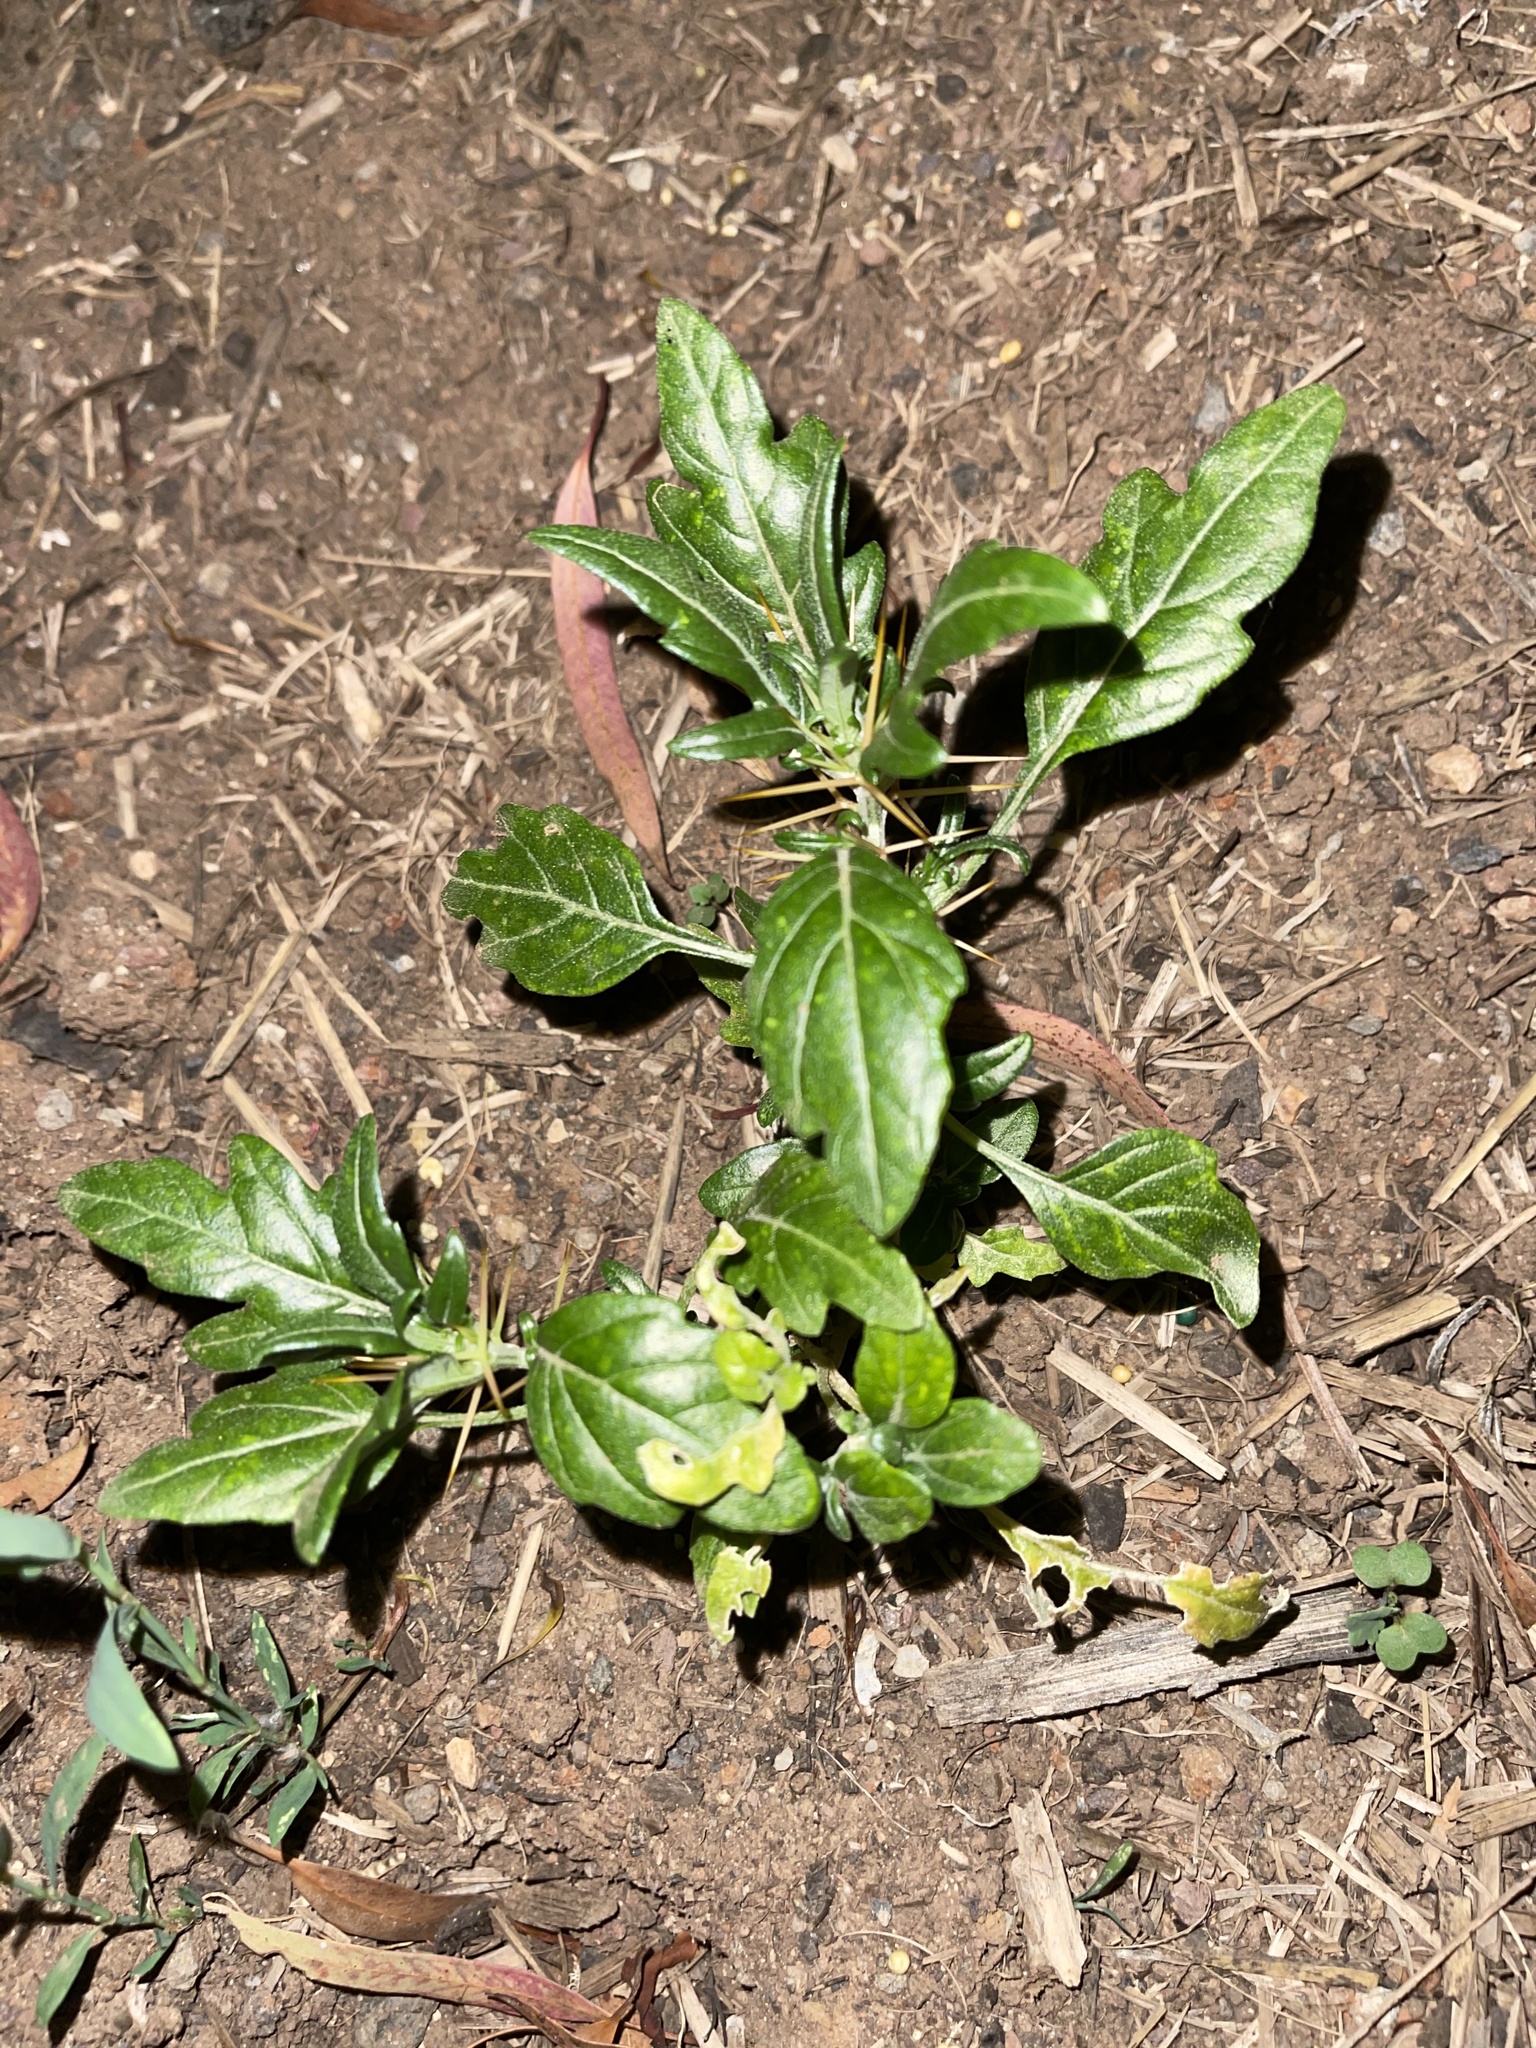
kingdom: Plantae
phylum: Tracheophyta
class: Magnoliopsida
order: Asterales
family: Asteraceae
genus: Xanthium
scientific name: Xanthium spinosum
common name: Spiny cocklebur
